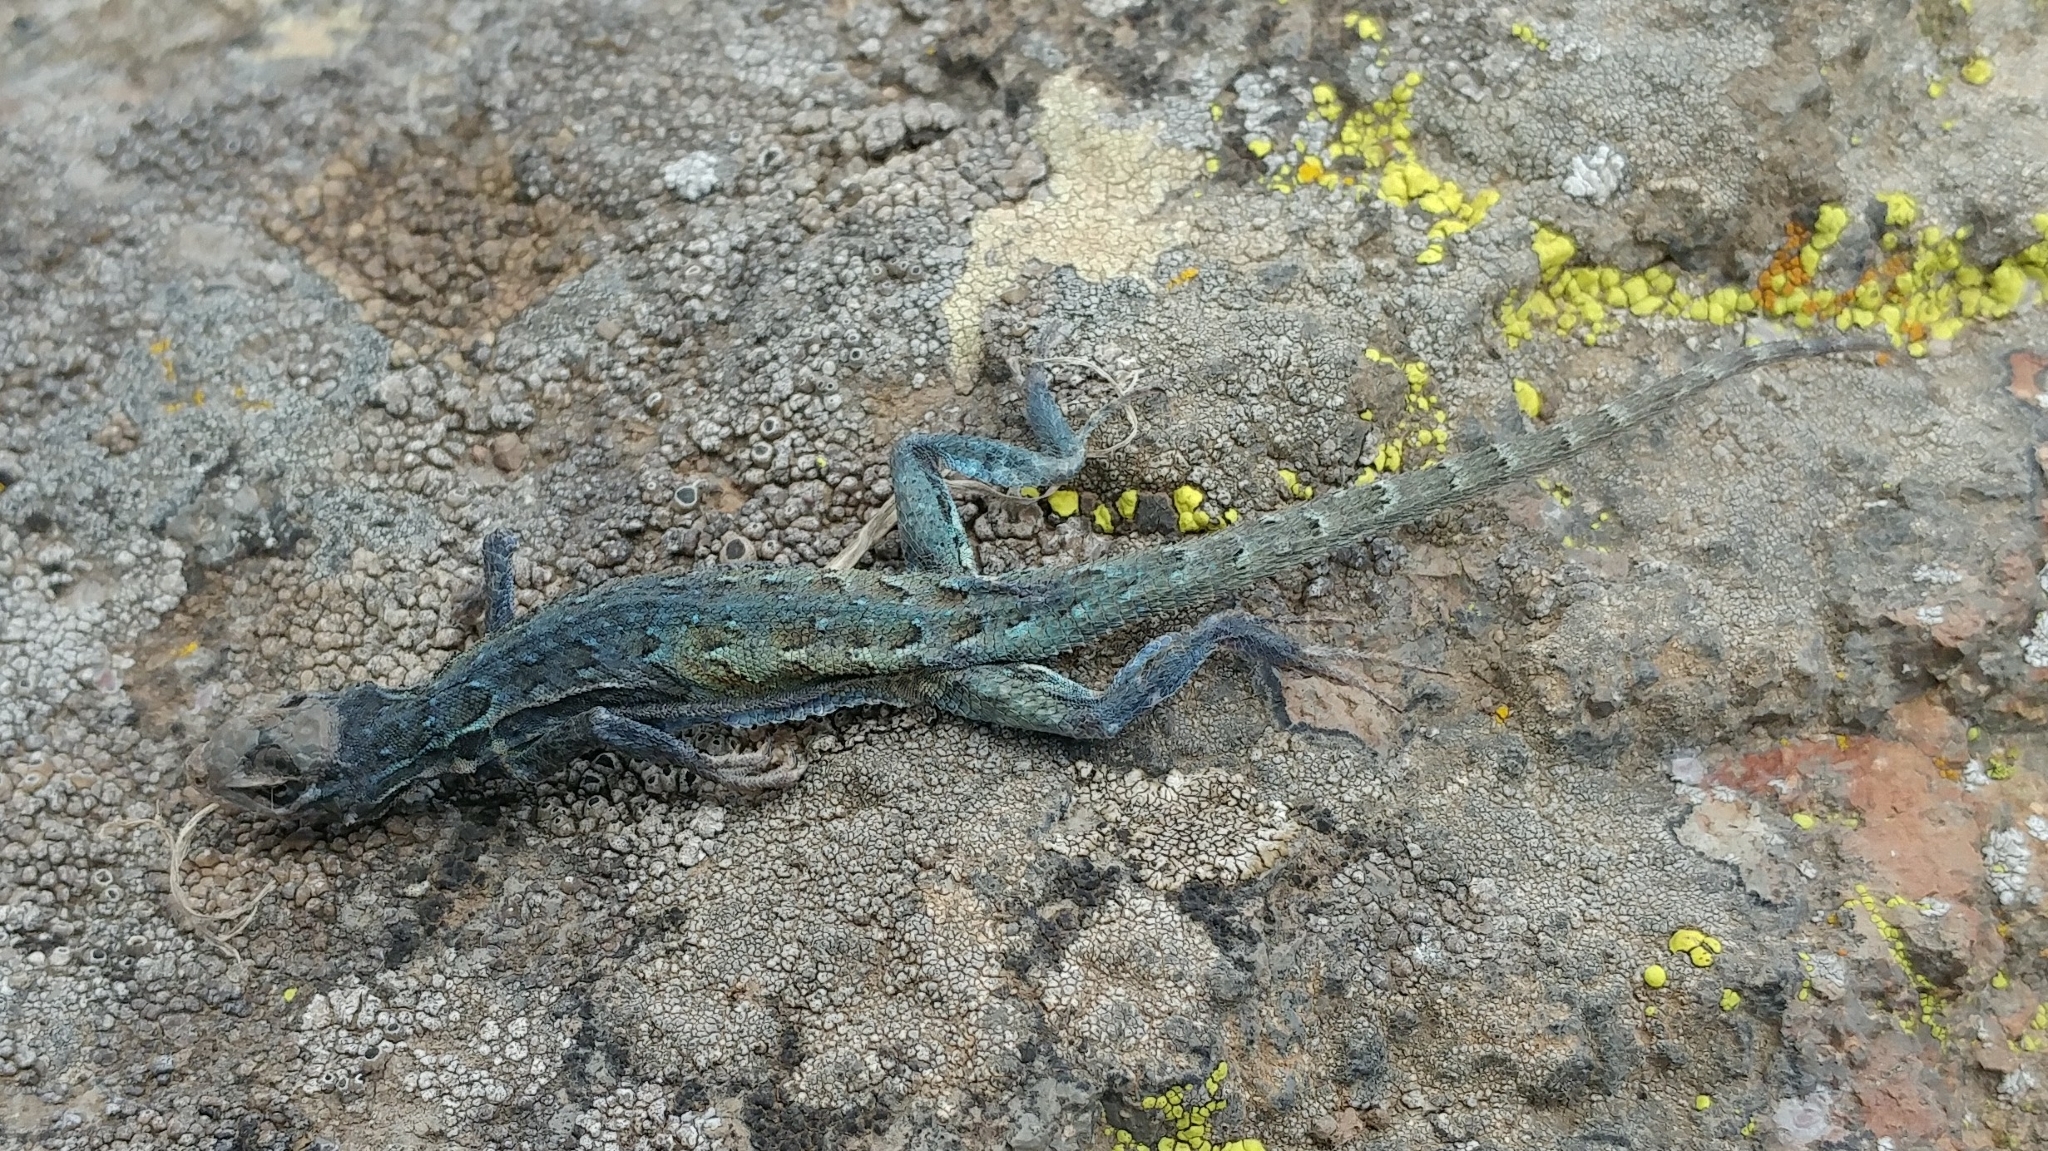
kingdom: Animalia
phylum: Chordata
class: Squamata
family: Phrynosomatidae
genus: Uta
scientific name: Uta stansburiana
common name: Side-blotched lizard
